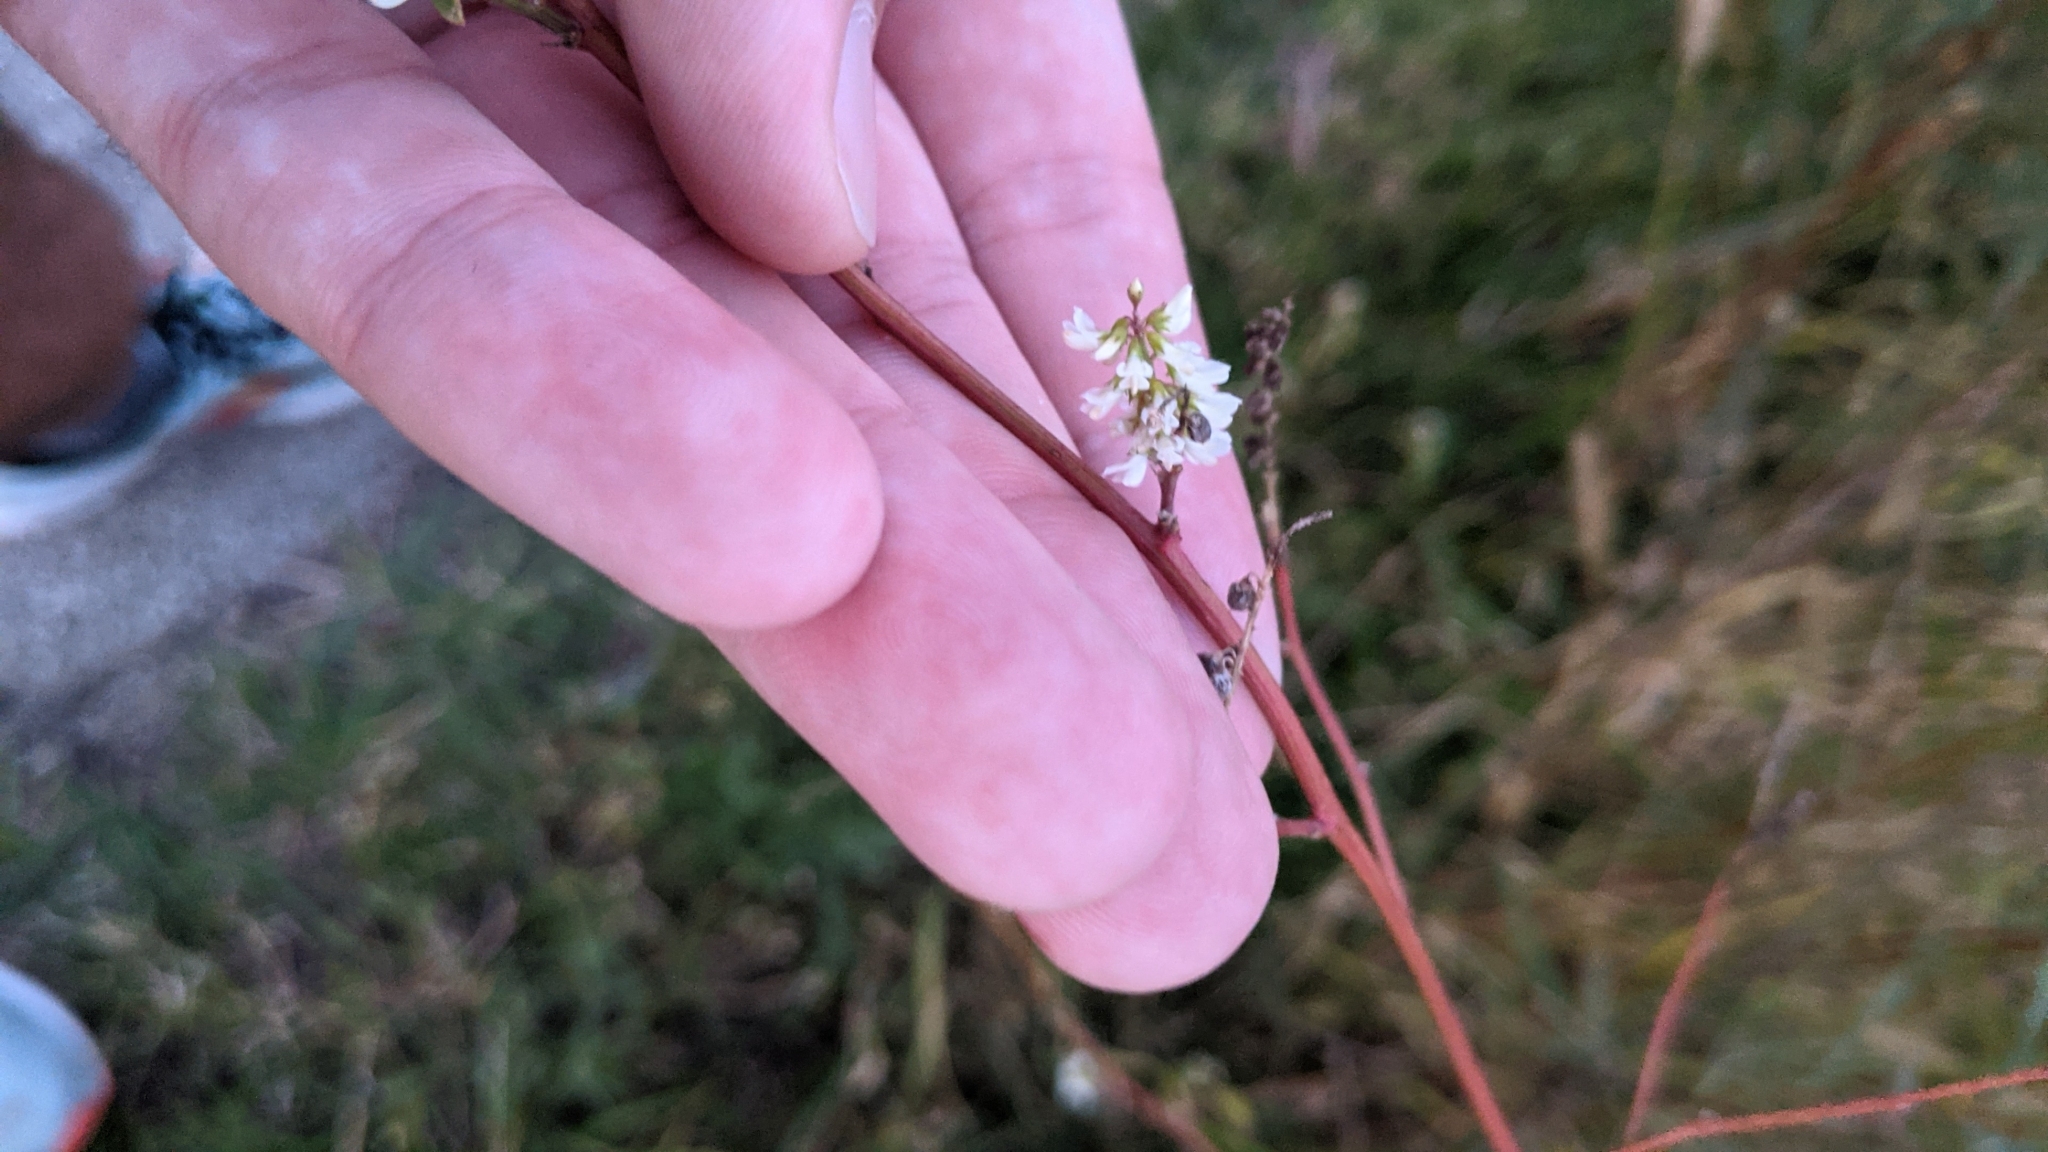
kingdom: Plantae
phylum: Tracheophyta
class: Magnoliopsida
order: Fabales
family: Fabaceae
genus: Melilotus
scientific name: Melilotus albus
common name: White melilot
